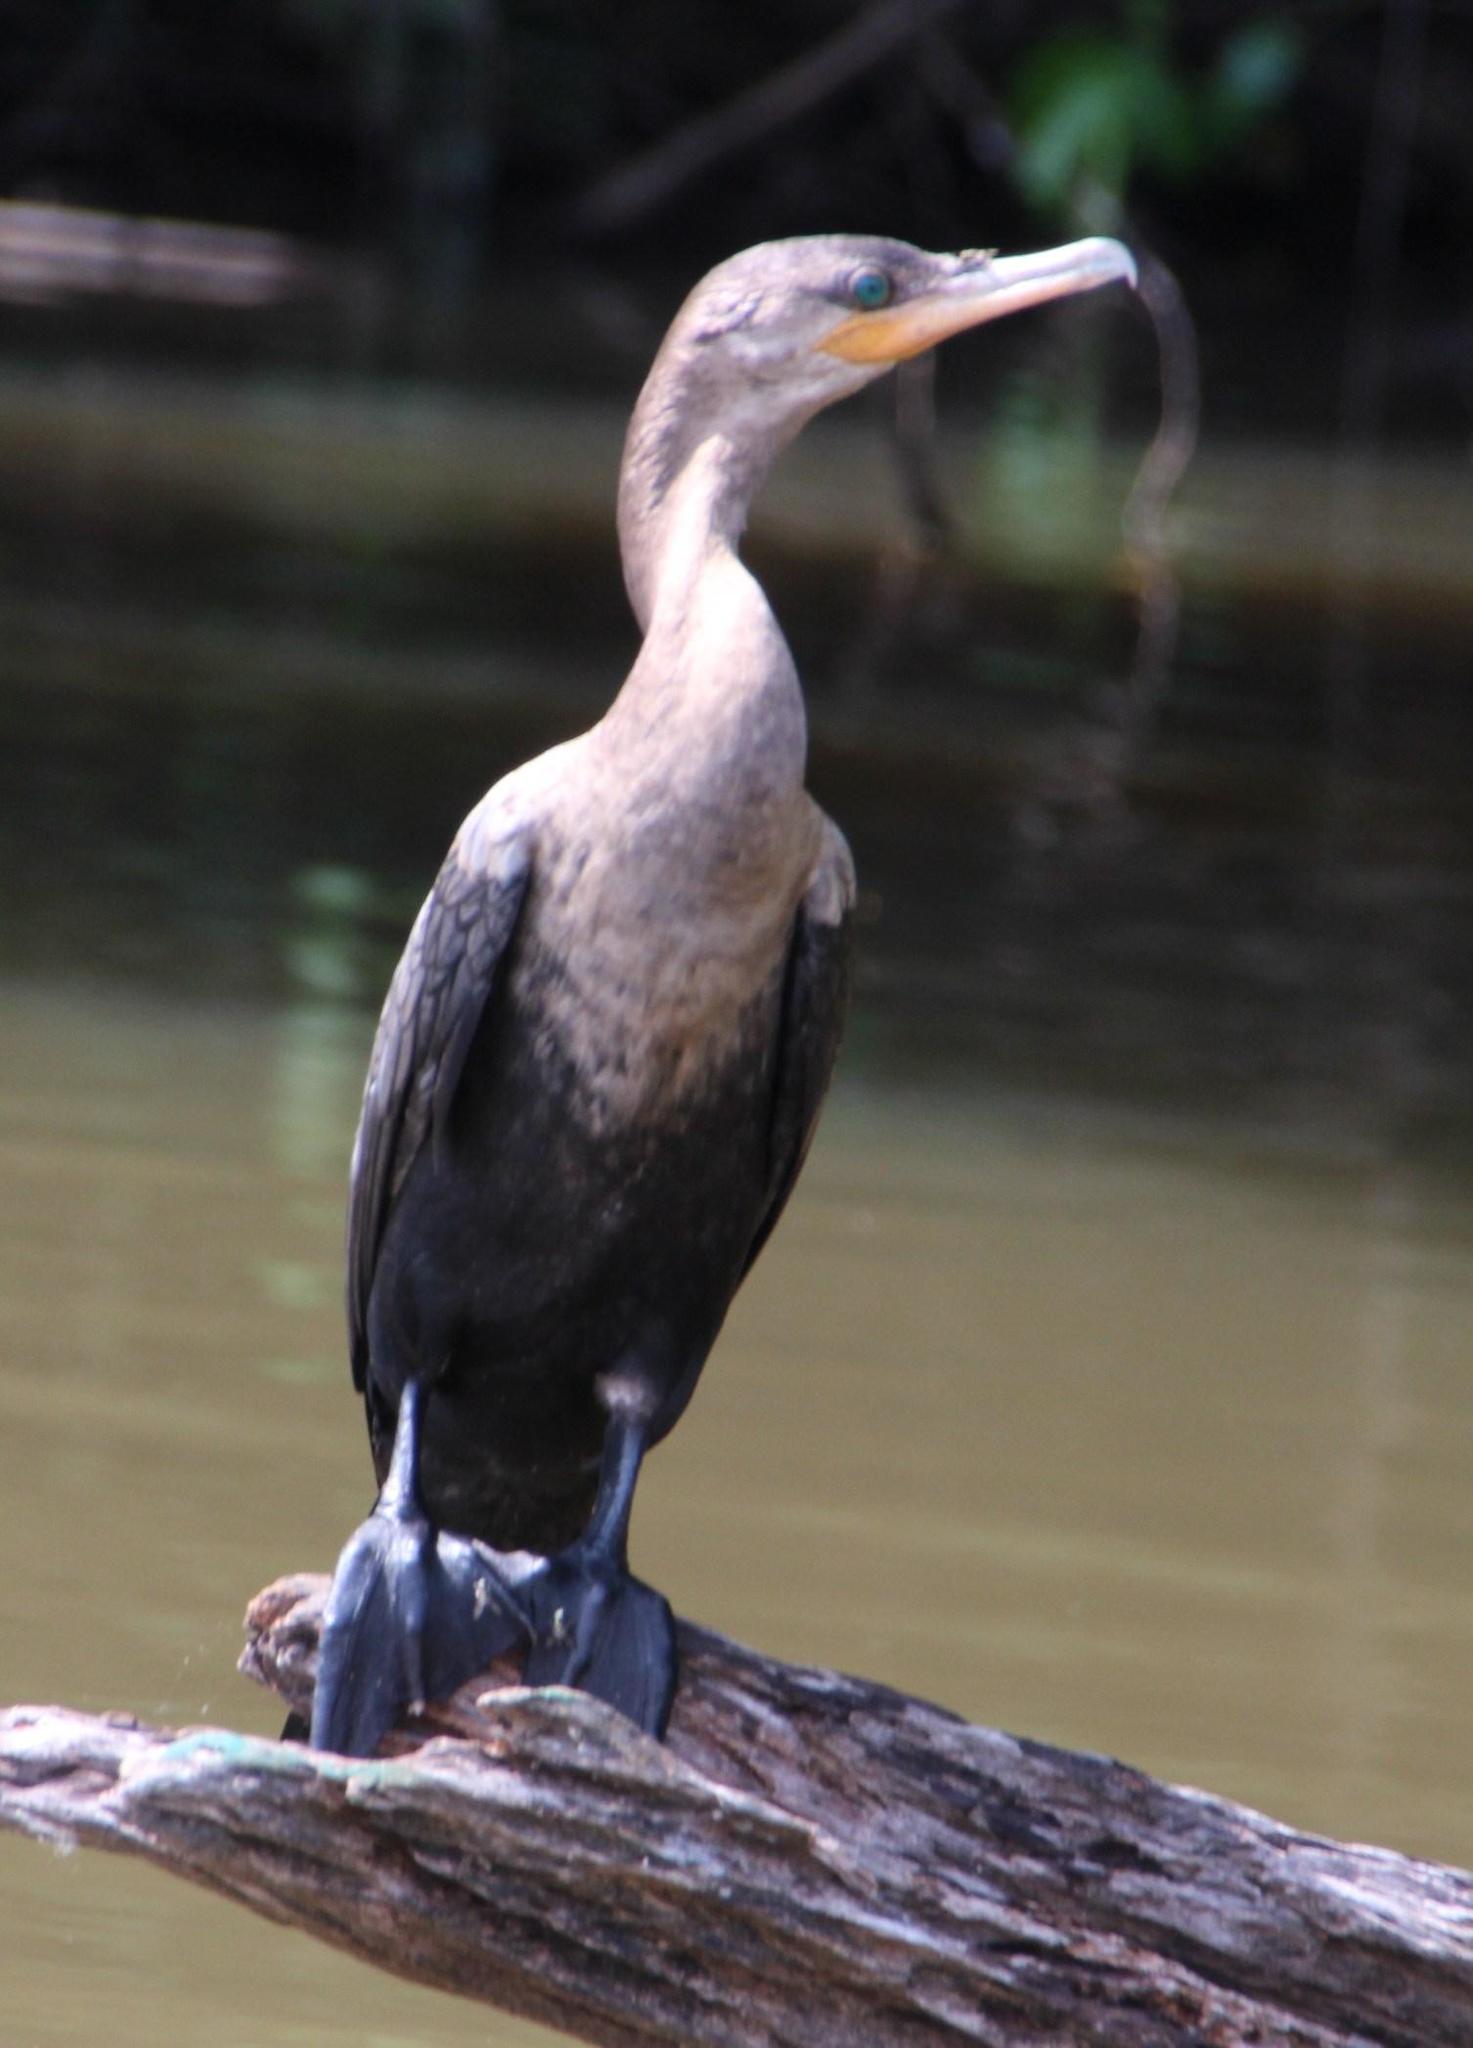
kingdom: Animalia
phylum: Chordata
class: Aves
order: Suliformes
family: Phalacrocoracidae
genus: Phalacrocorax
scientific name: Phalacrocorax brasilianus
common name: Neotropic cormorant
